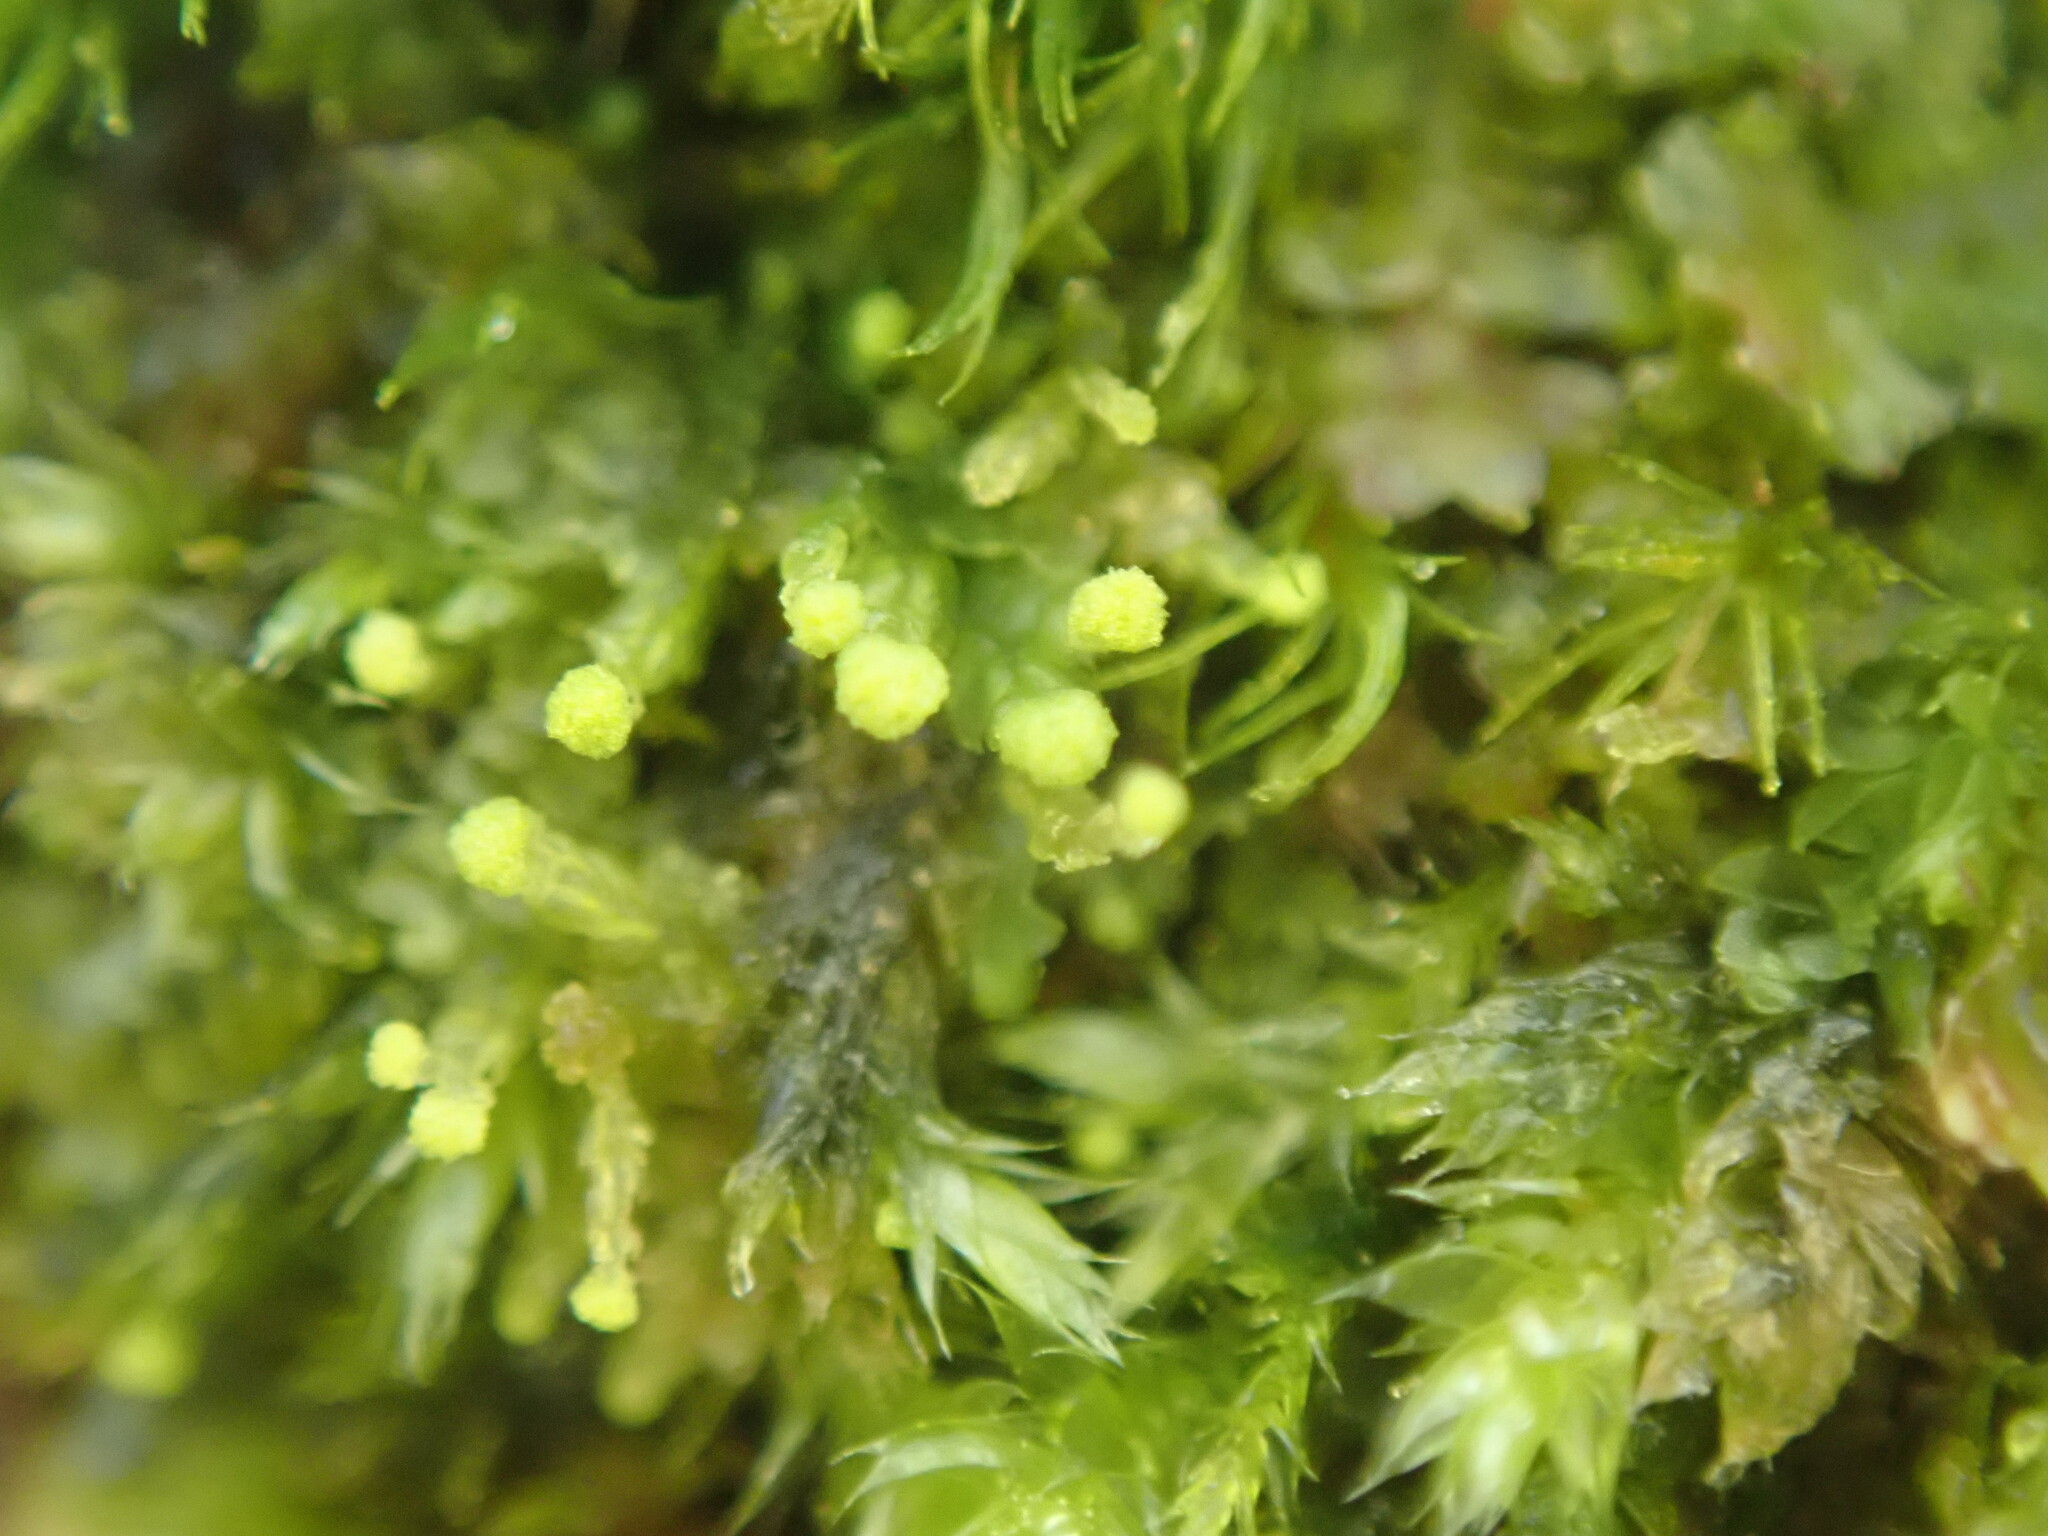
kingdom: Plantae
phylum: Marchantiophyta
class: Jungermanniopsida
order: Jungermanniales
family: Calypogeiaceae
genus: Calypogeia
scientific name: Calypogeia
